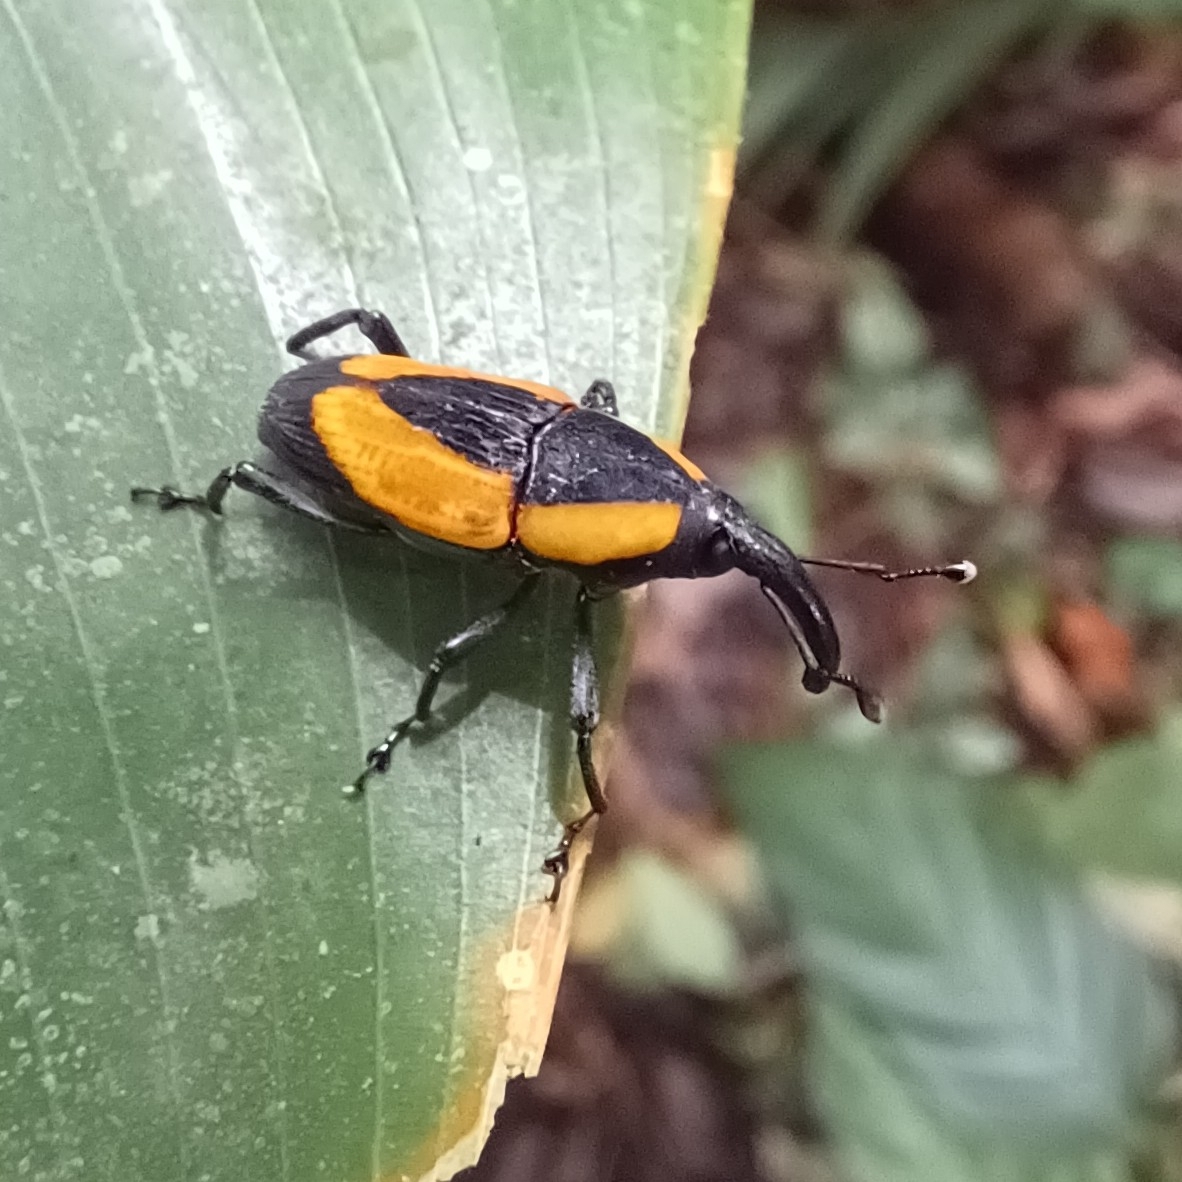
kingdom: Animalia
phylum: Arthropoda
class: Insecta
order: Coleoptera
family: Dryophthoridae
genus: Cactophagus
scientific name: Cactophagus circumdatus
